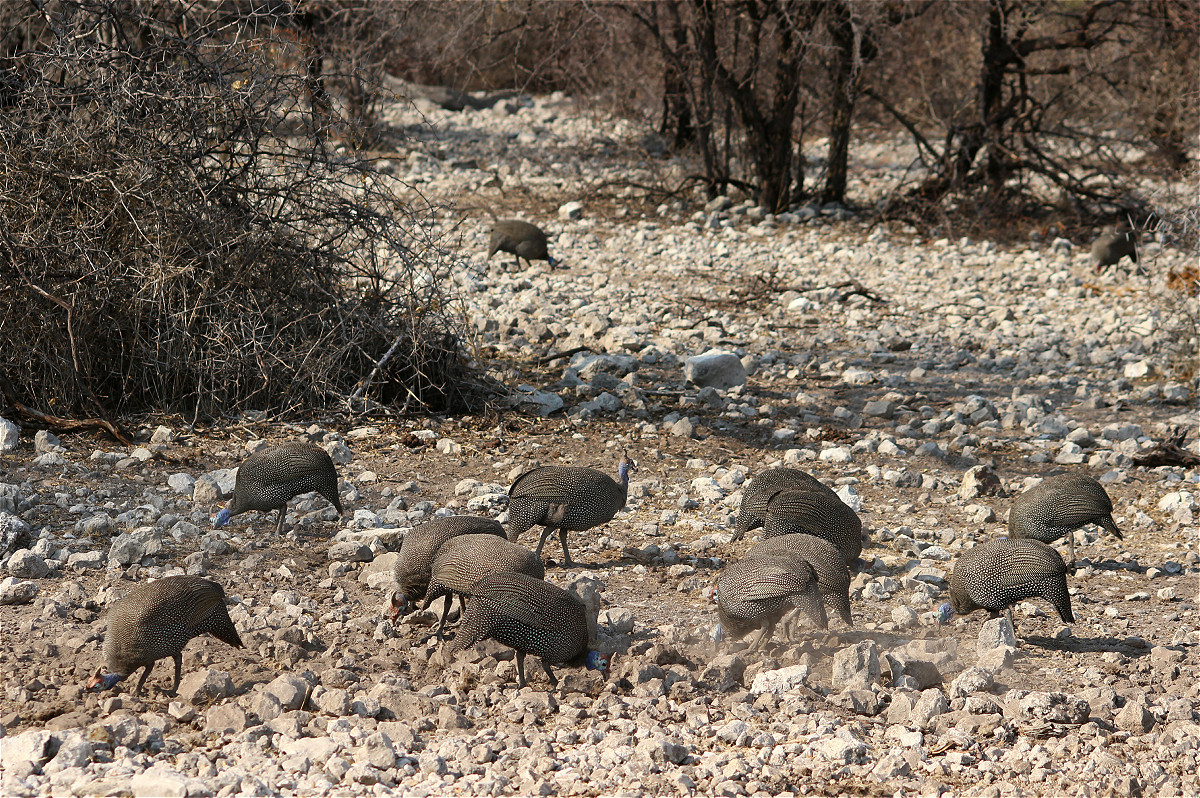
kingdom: Animalia
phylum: Chordata
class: Aves
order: Galliformes
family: Numididae
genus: Numida
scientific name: Numida meleagris
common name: Helmeted guineafowl
